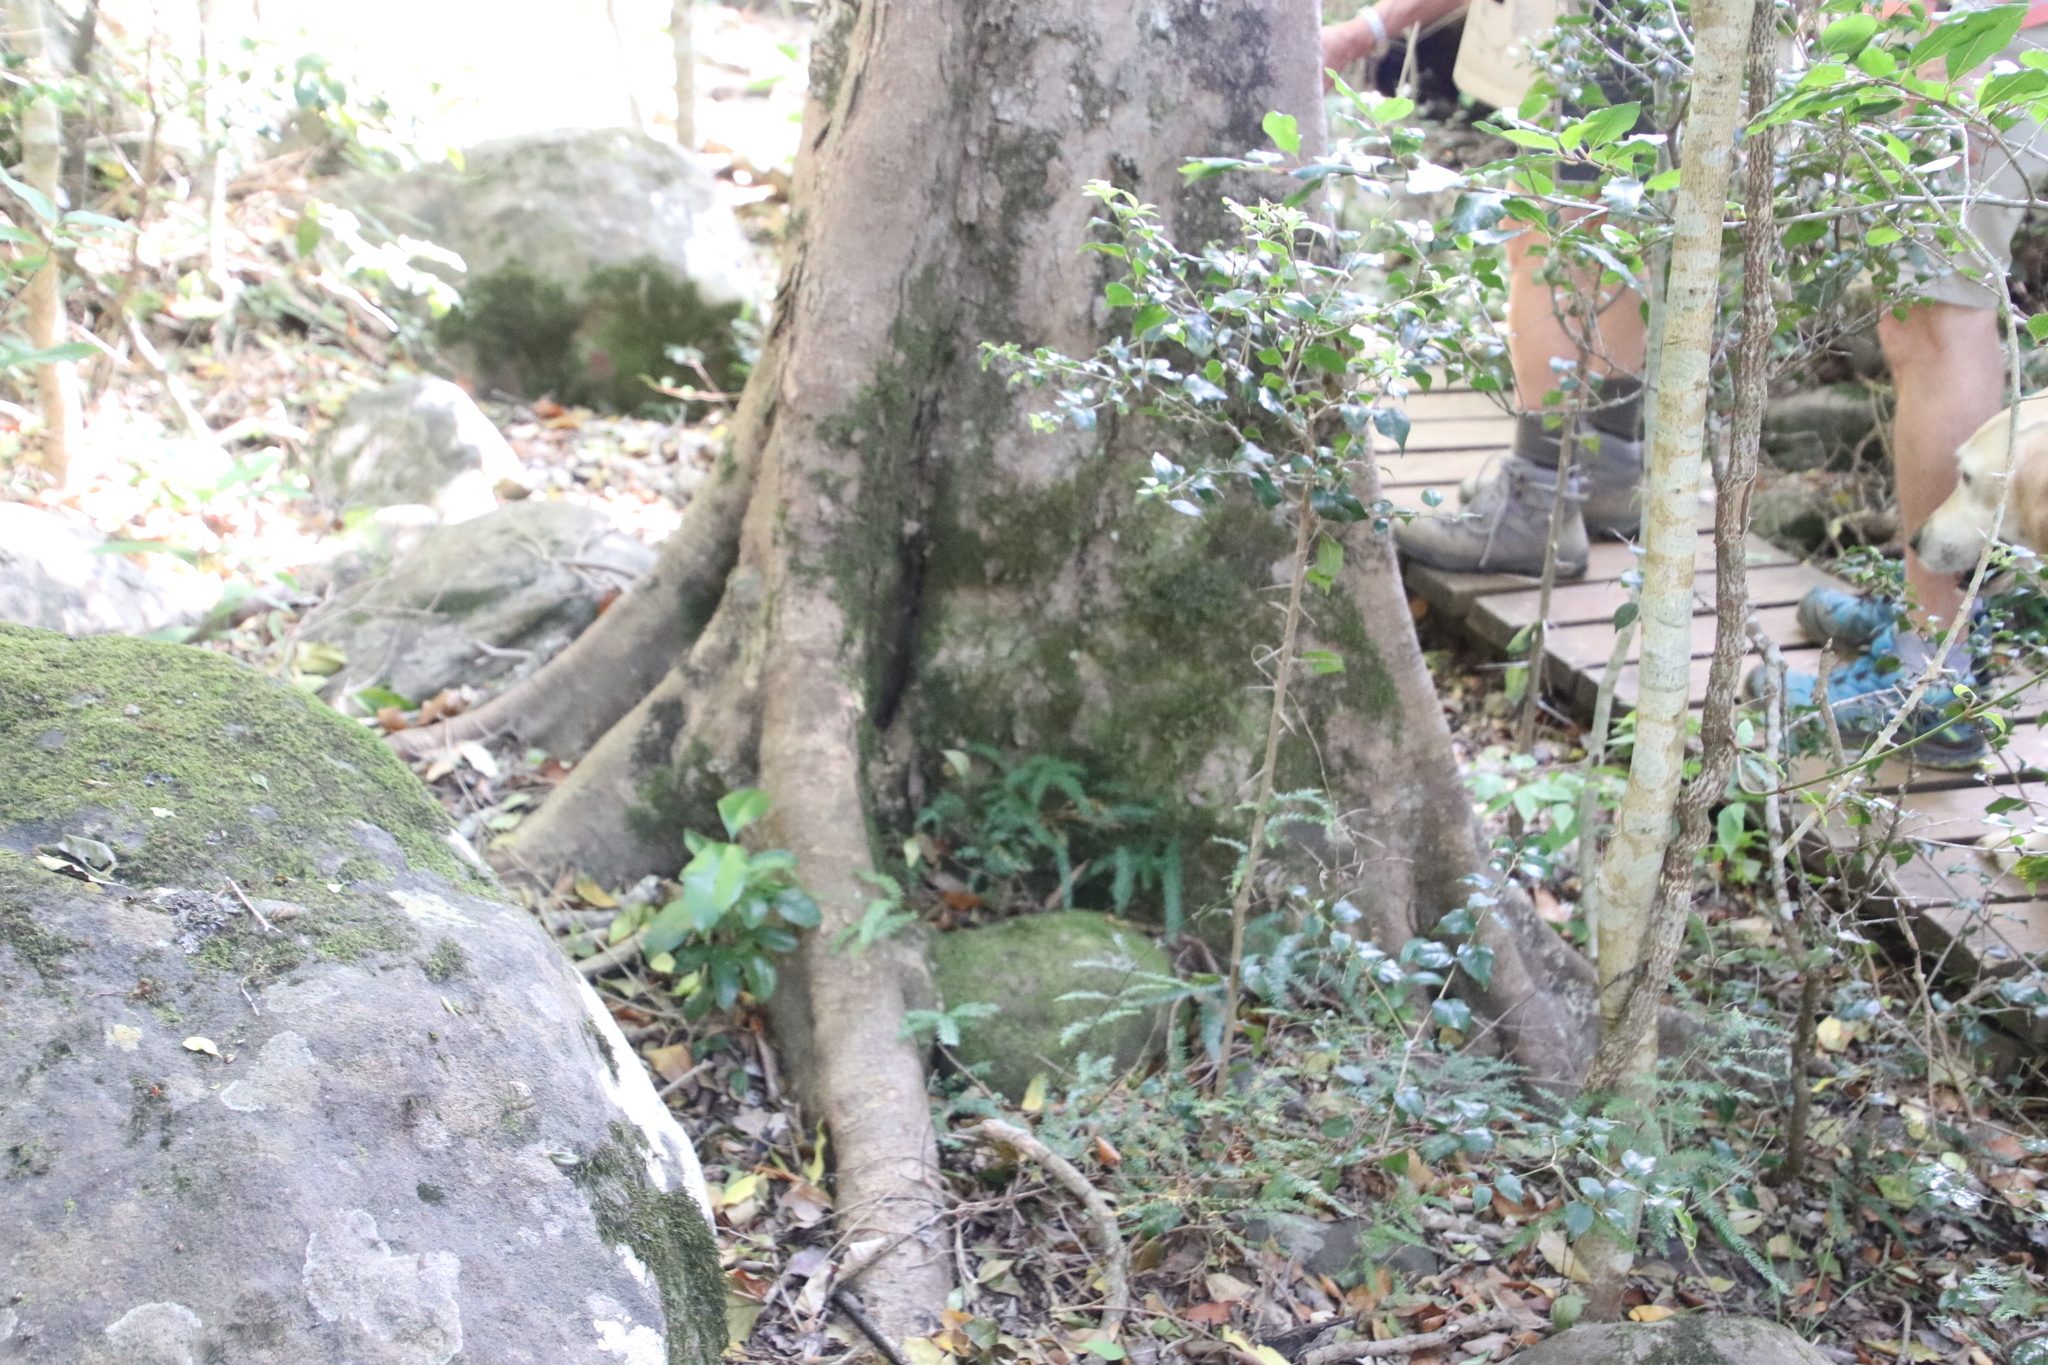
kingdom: Plantae
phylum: Tracheophyta
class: Magnoliopsida
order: Malpighiales
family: Salicaceae
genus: Scolopia
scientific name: Scolopia mundii
